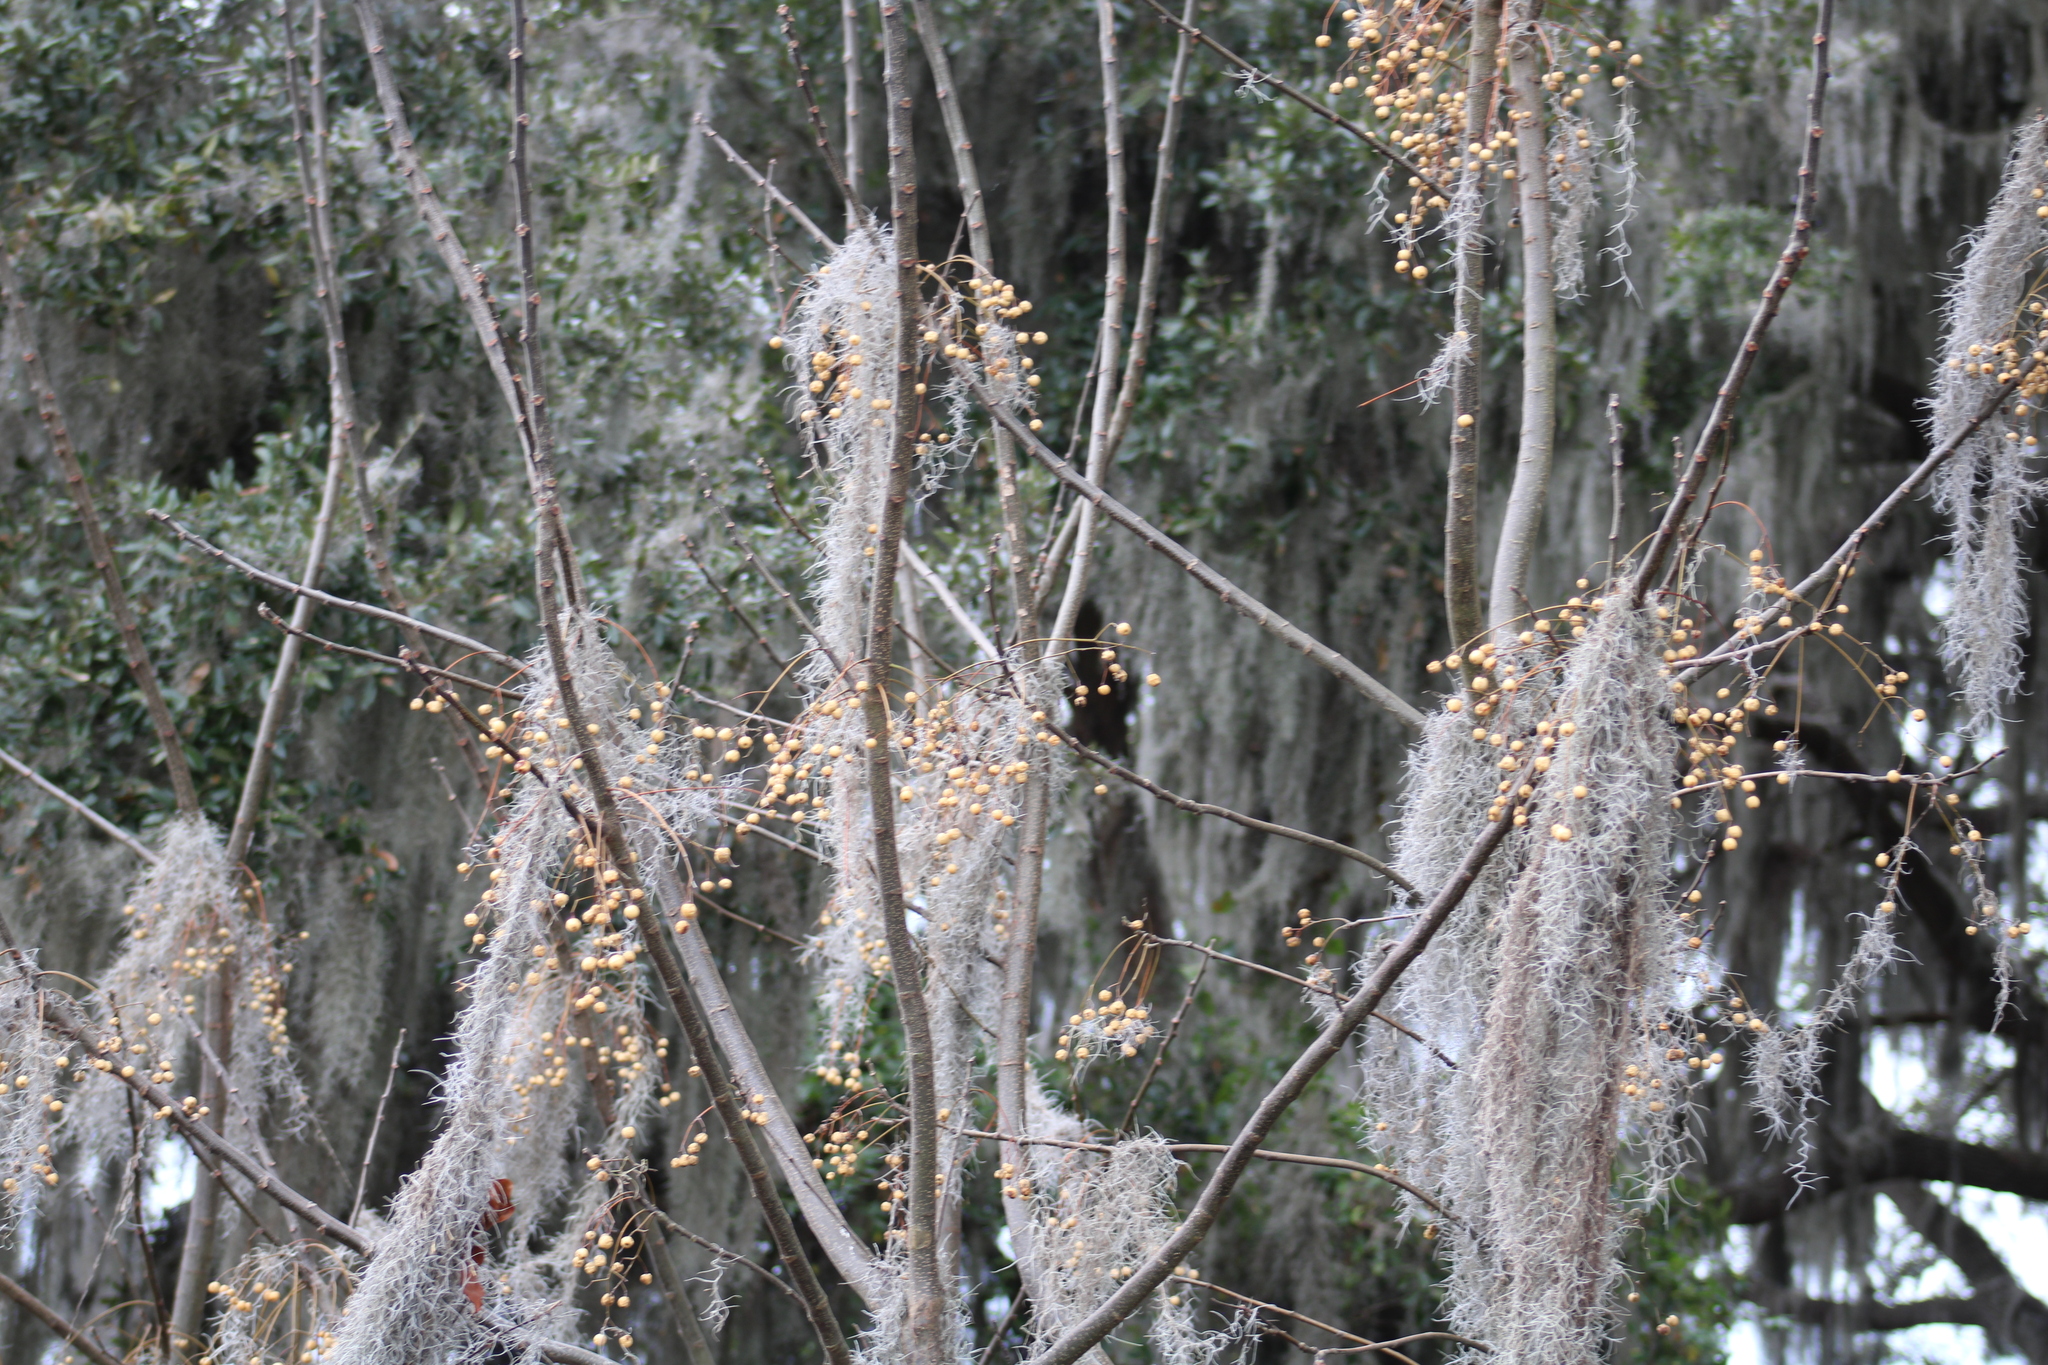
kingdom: Plantae
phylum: Tracheophyta
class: Magnoliopsida
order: Sapindales
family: Meliaceae
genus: Melia
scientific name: Melia azedarach
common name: Chinaberrytree
